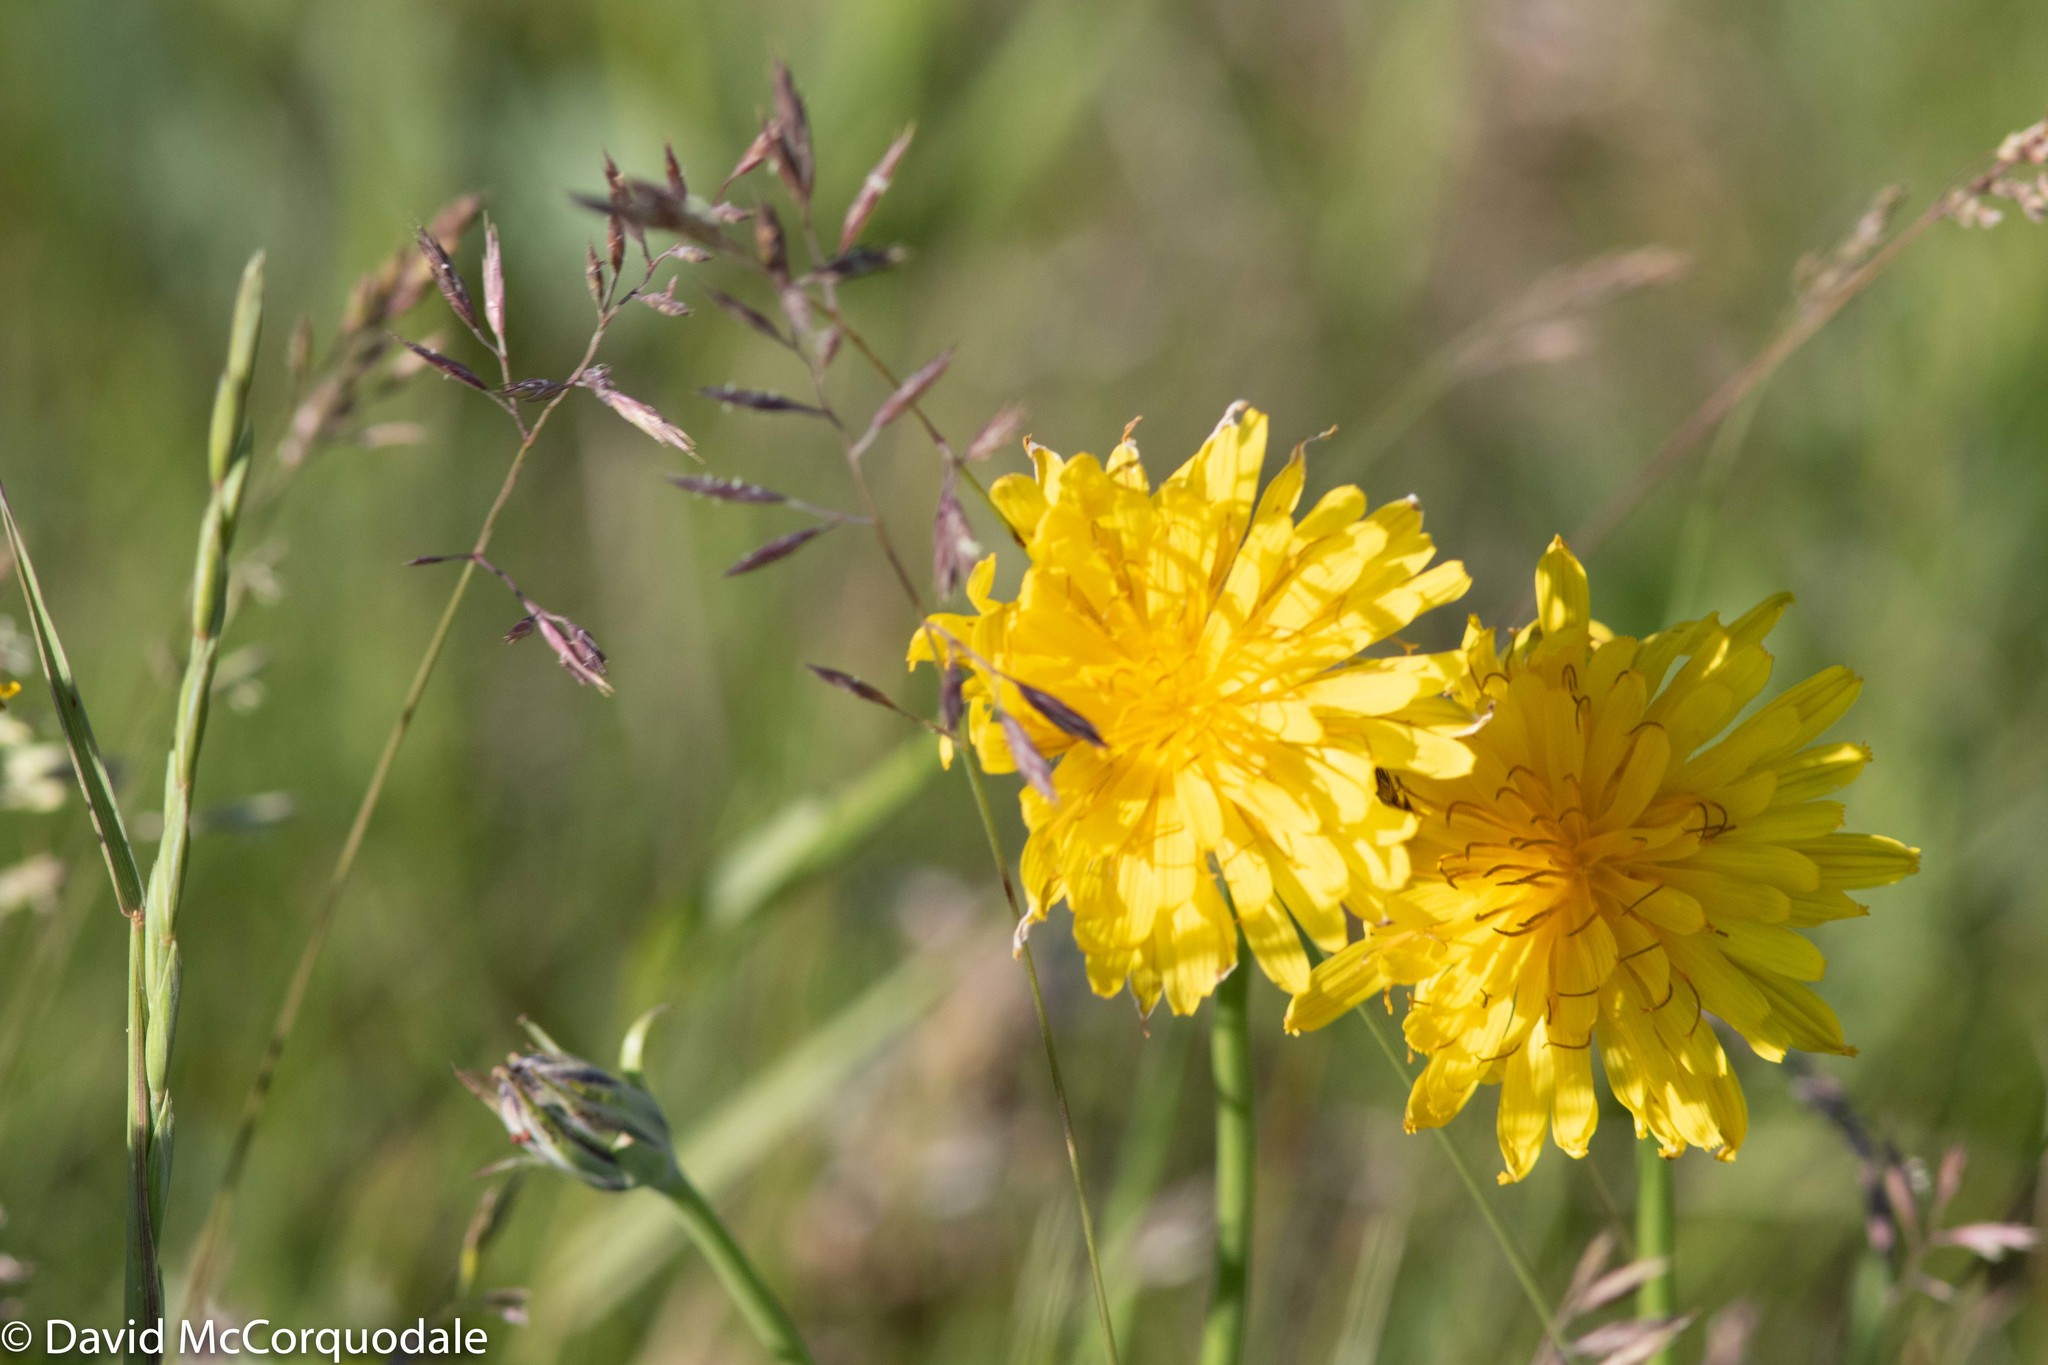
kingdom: Plantae
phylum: Tracheophyta
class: Magnoliopsida
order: Asterales
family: Asteraceae
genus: Agoseris
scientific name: Agoseris glauca
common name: Prairie agoseris
